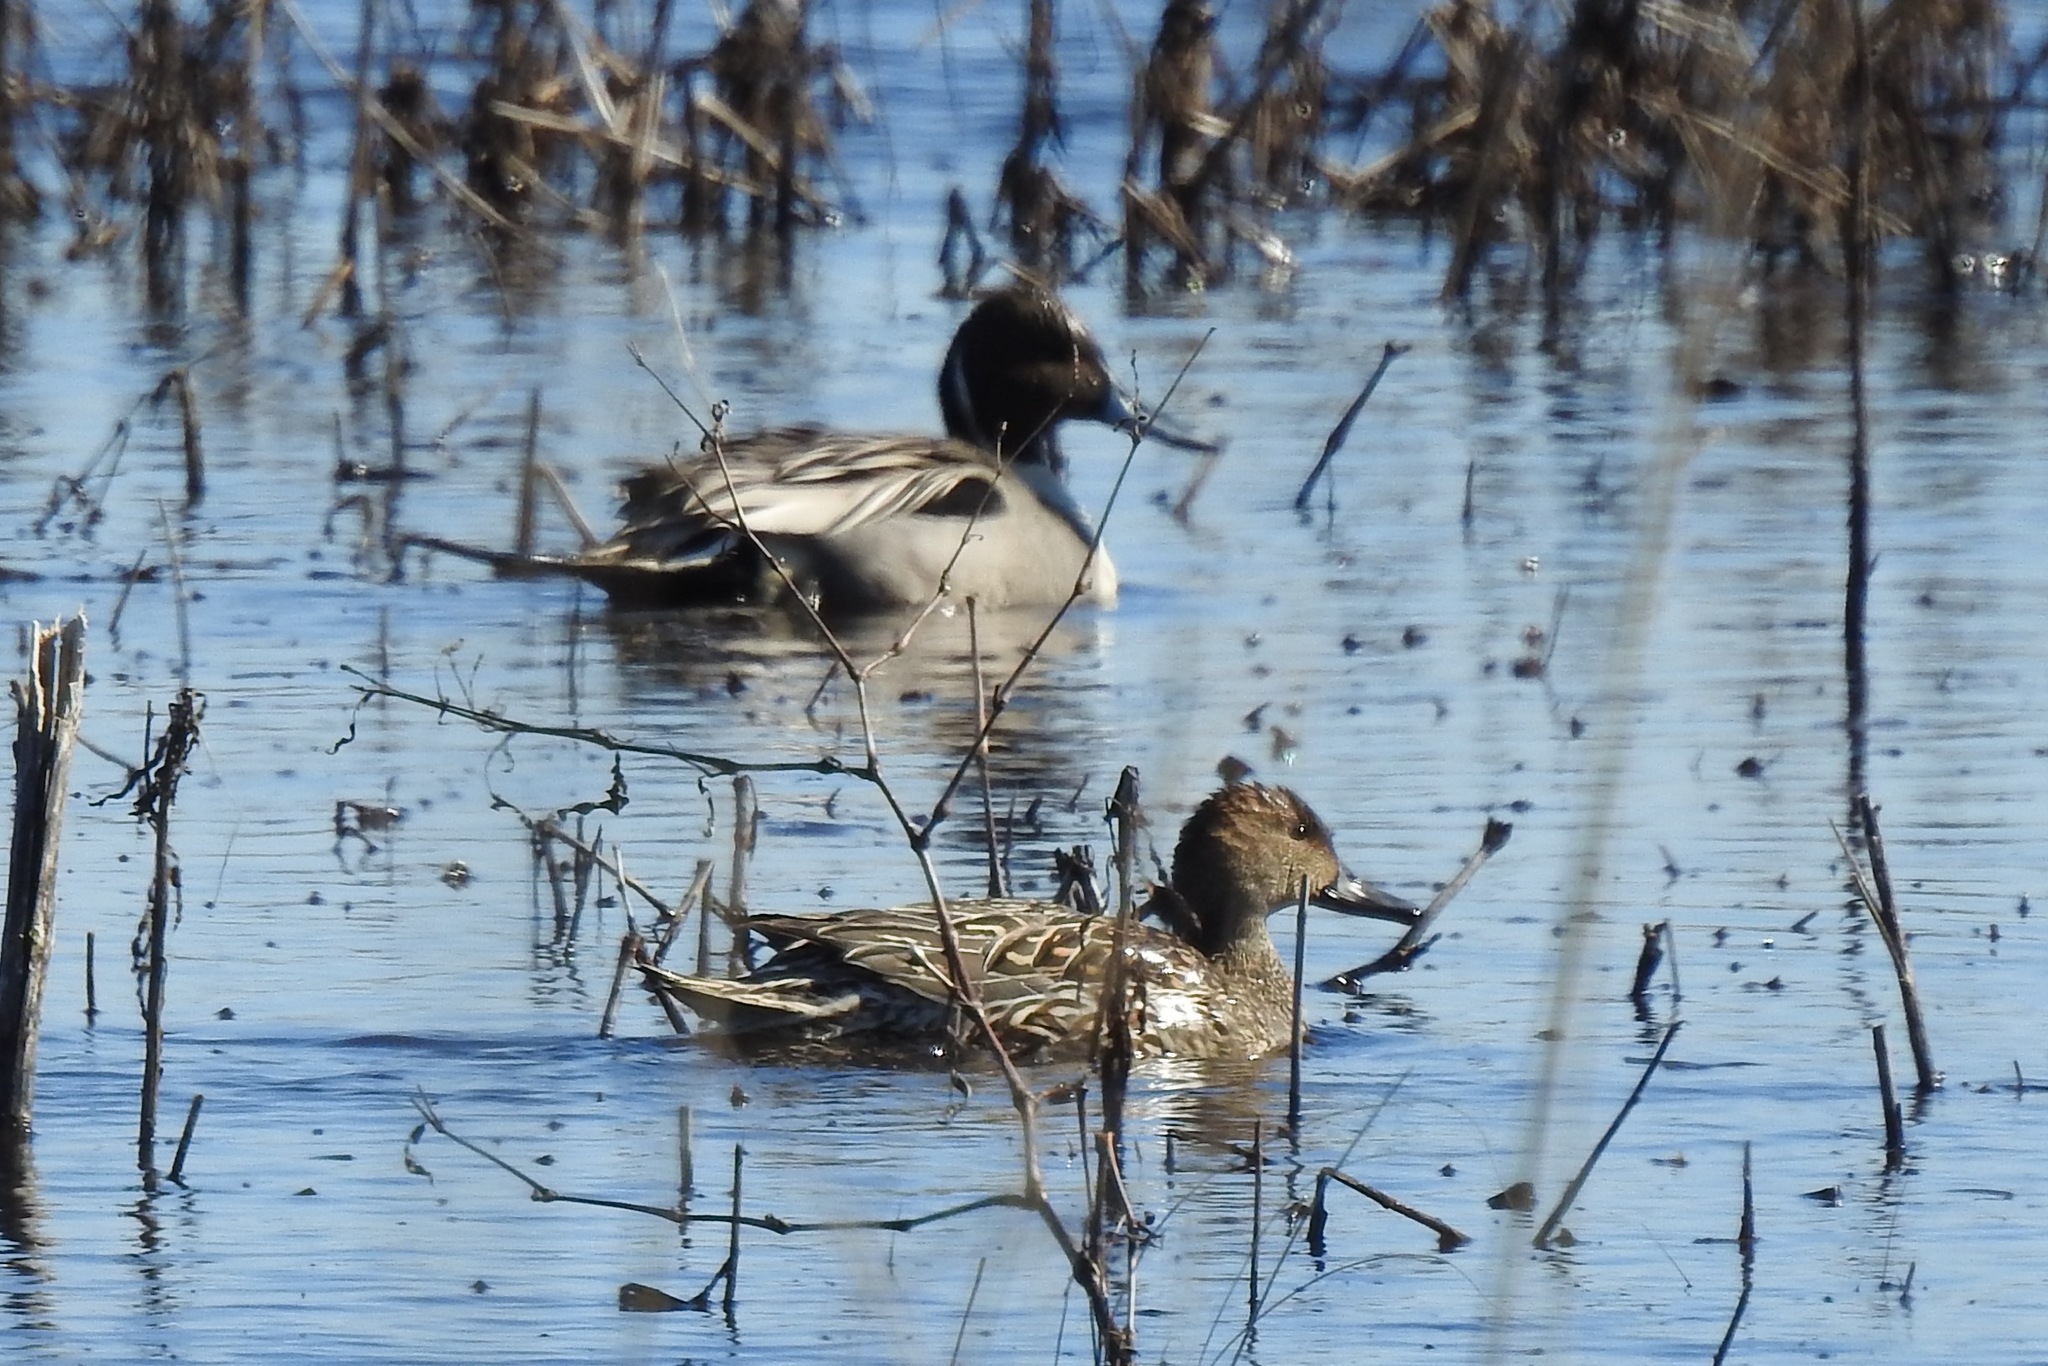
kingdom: Animalia
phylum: Chordata
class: Aves
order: Anseriformes
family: Anatidae
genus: Anas
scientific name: Anas acuta
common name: Northern pintail
